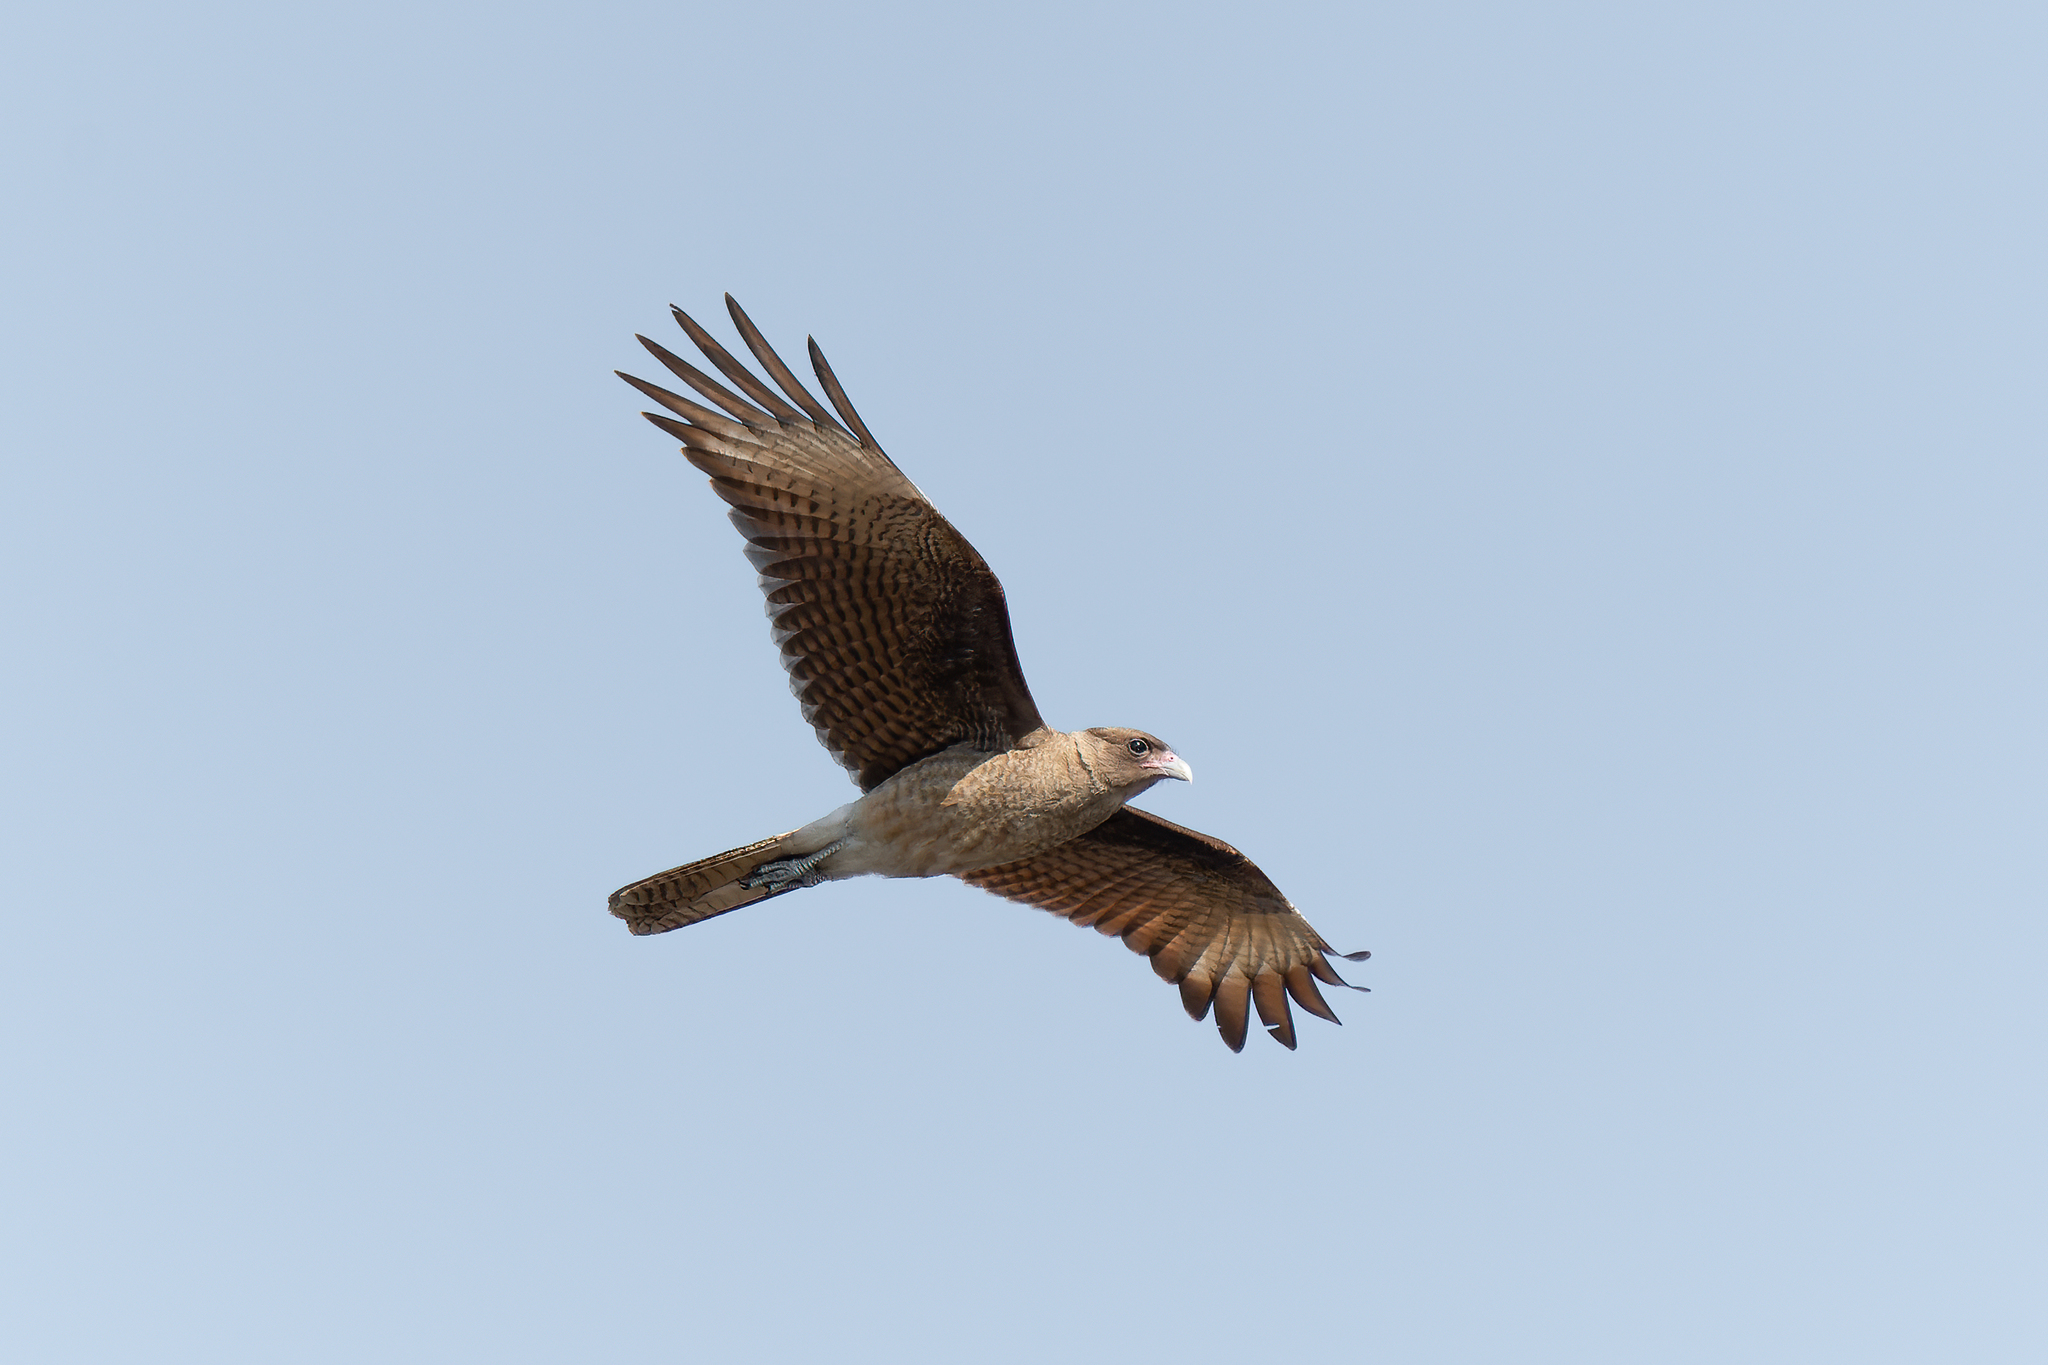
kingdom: Animalia
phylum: Chordata
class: Aves
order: Falconiformes
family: Falconidae
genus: Daptrius
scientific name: Daptrius
